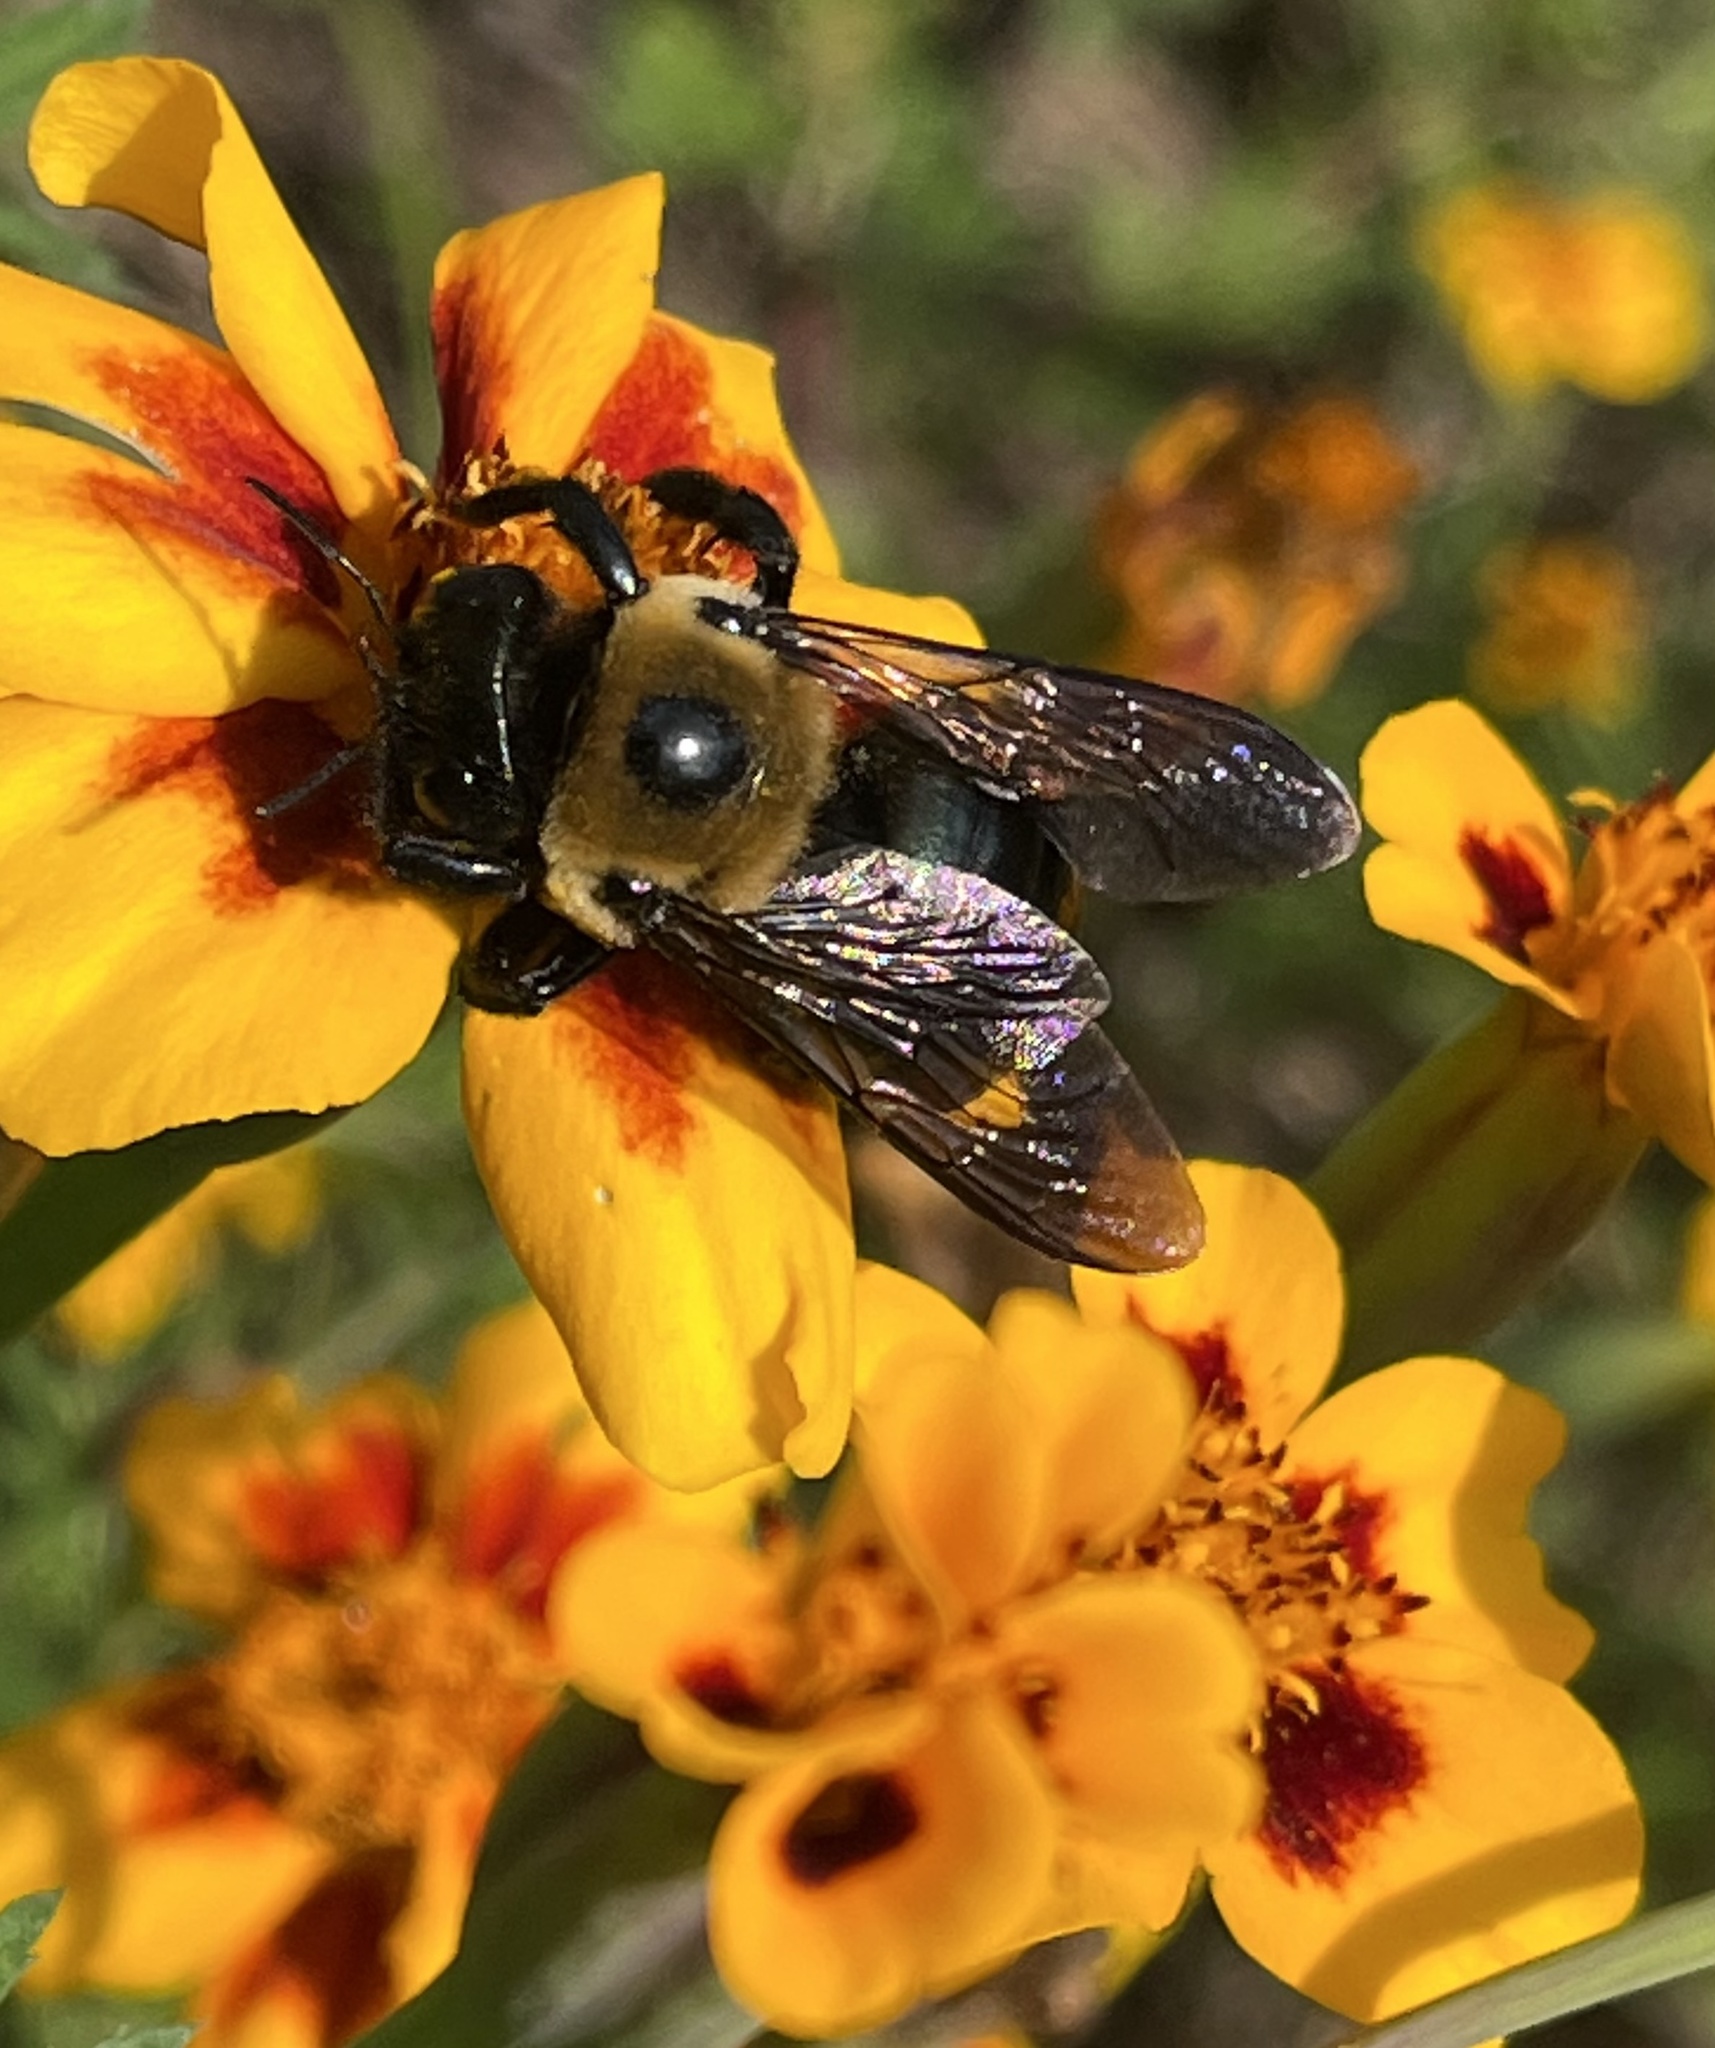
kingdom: Animalia
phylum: Arthropoda
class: Insecta
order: Hymenoptera
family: Apidae
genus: Xylocopa
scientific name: Xylocopa virginica
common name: Carpenter bee
